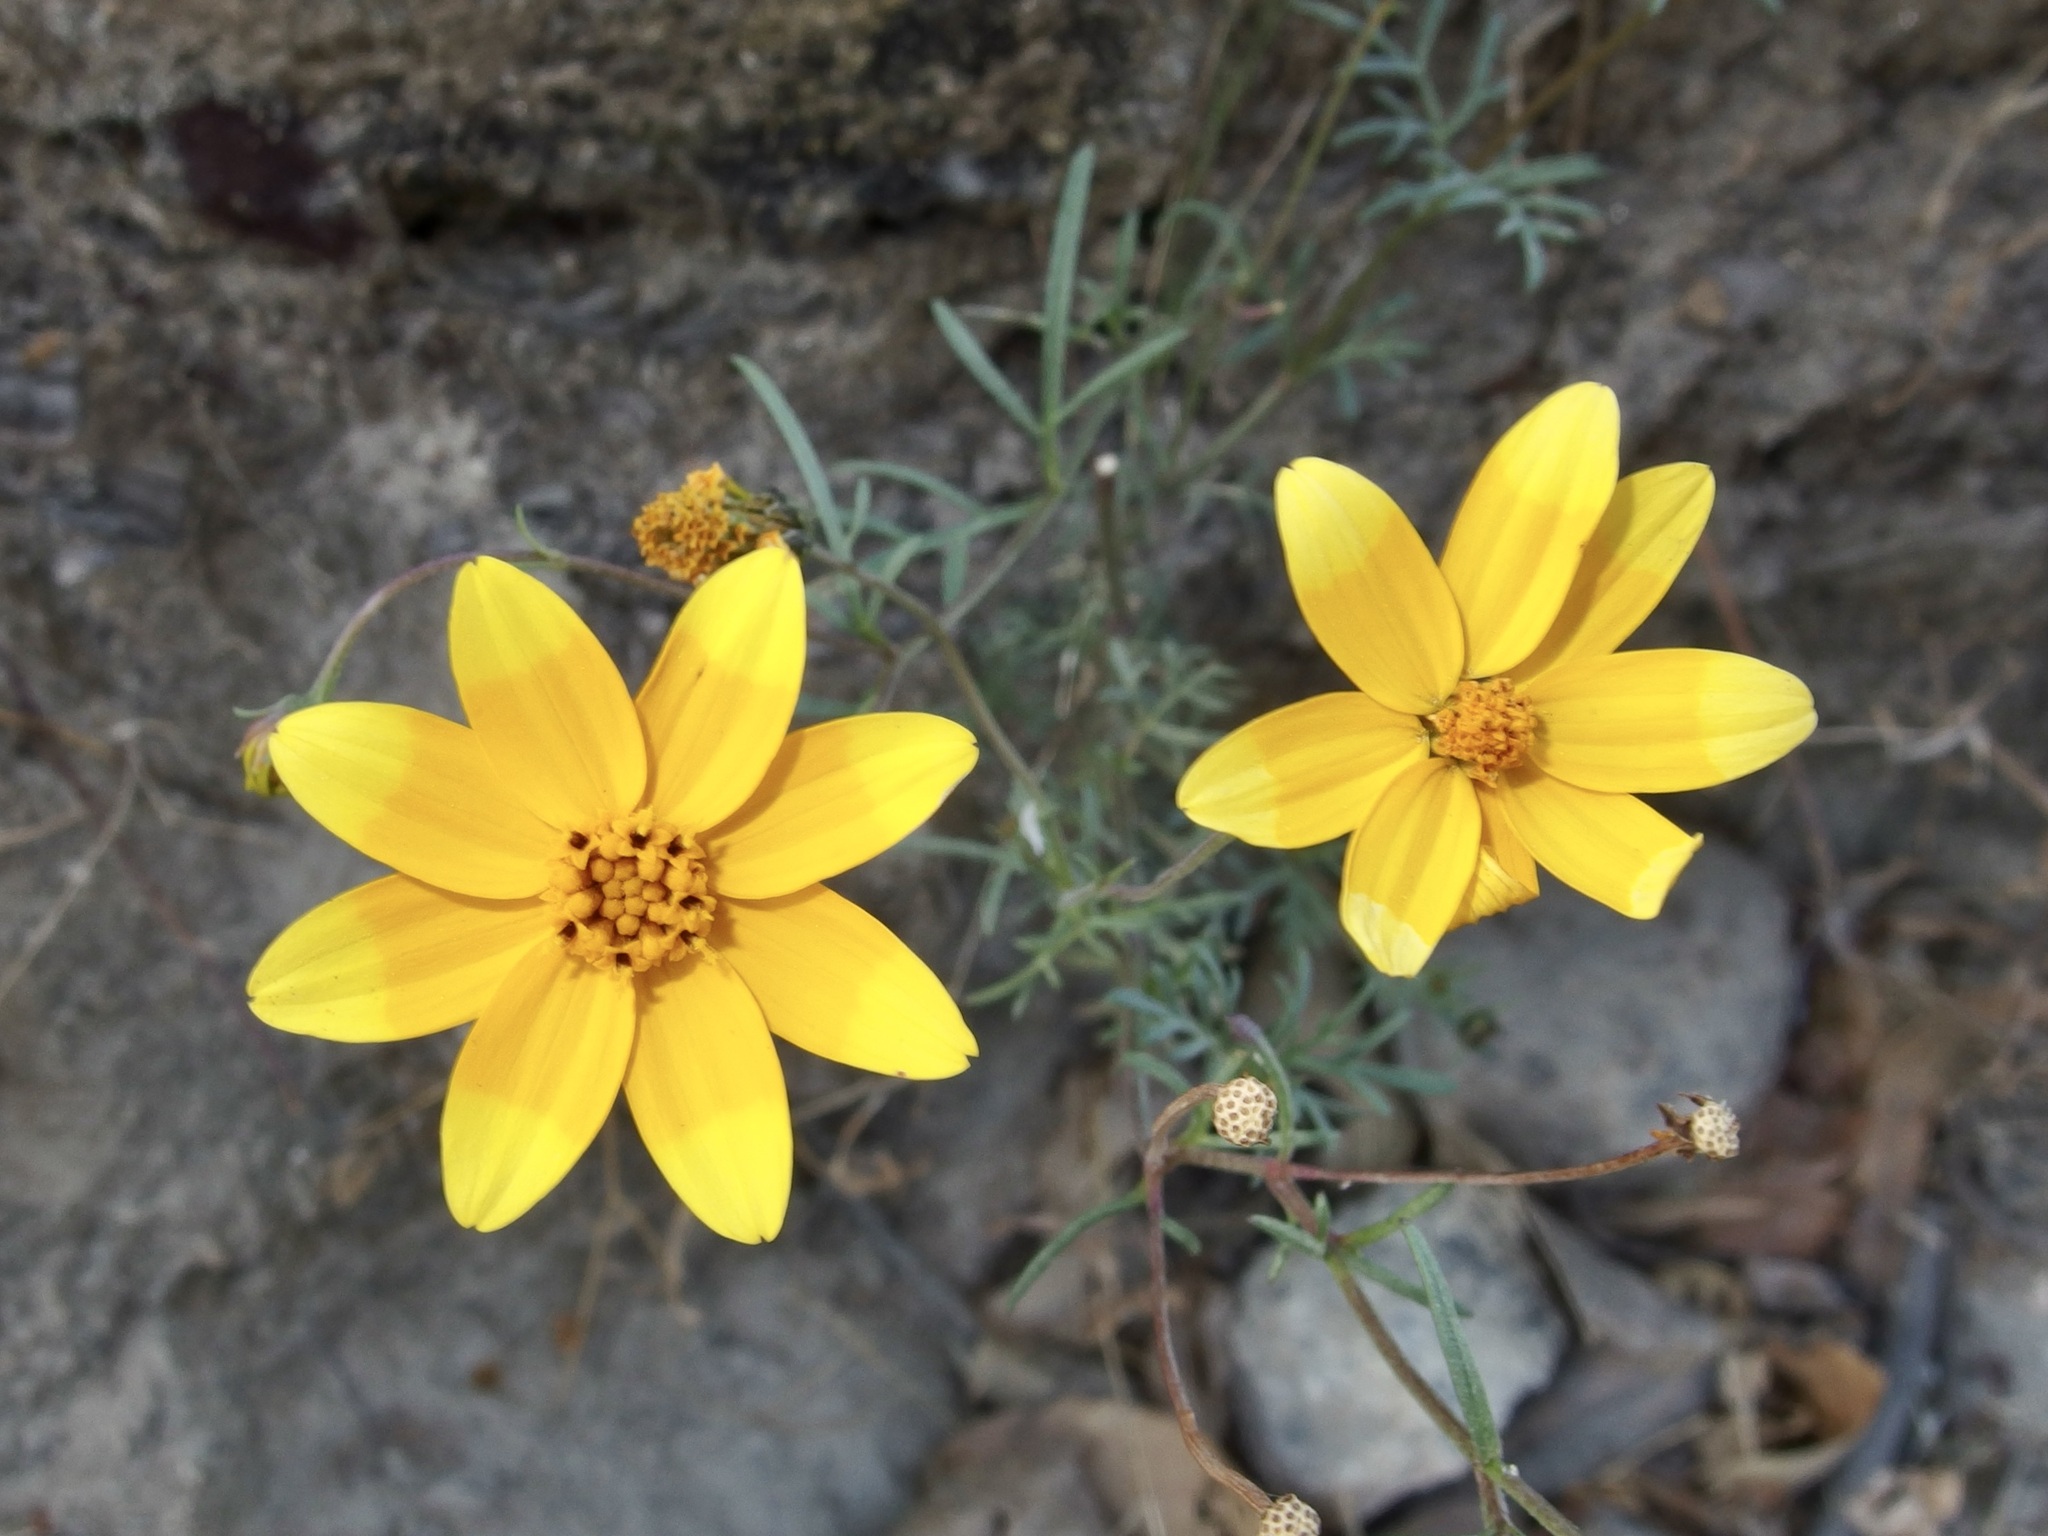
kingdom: Plantae
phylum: Tracheophyta
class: Magnoliopsida
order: Asterales
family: Asteraceae
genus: Bidens
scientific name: Bidens xanti
